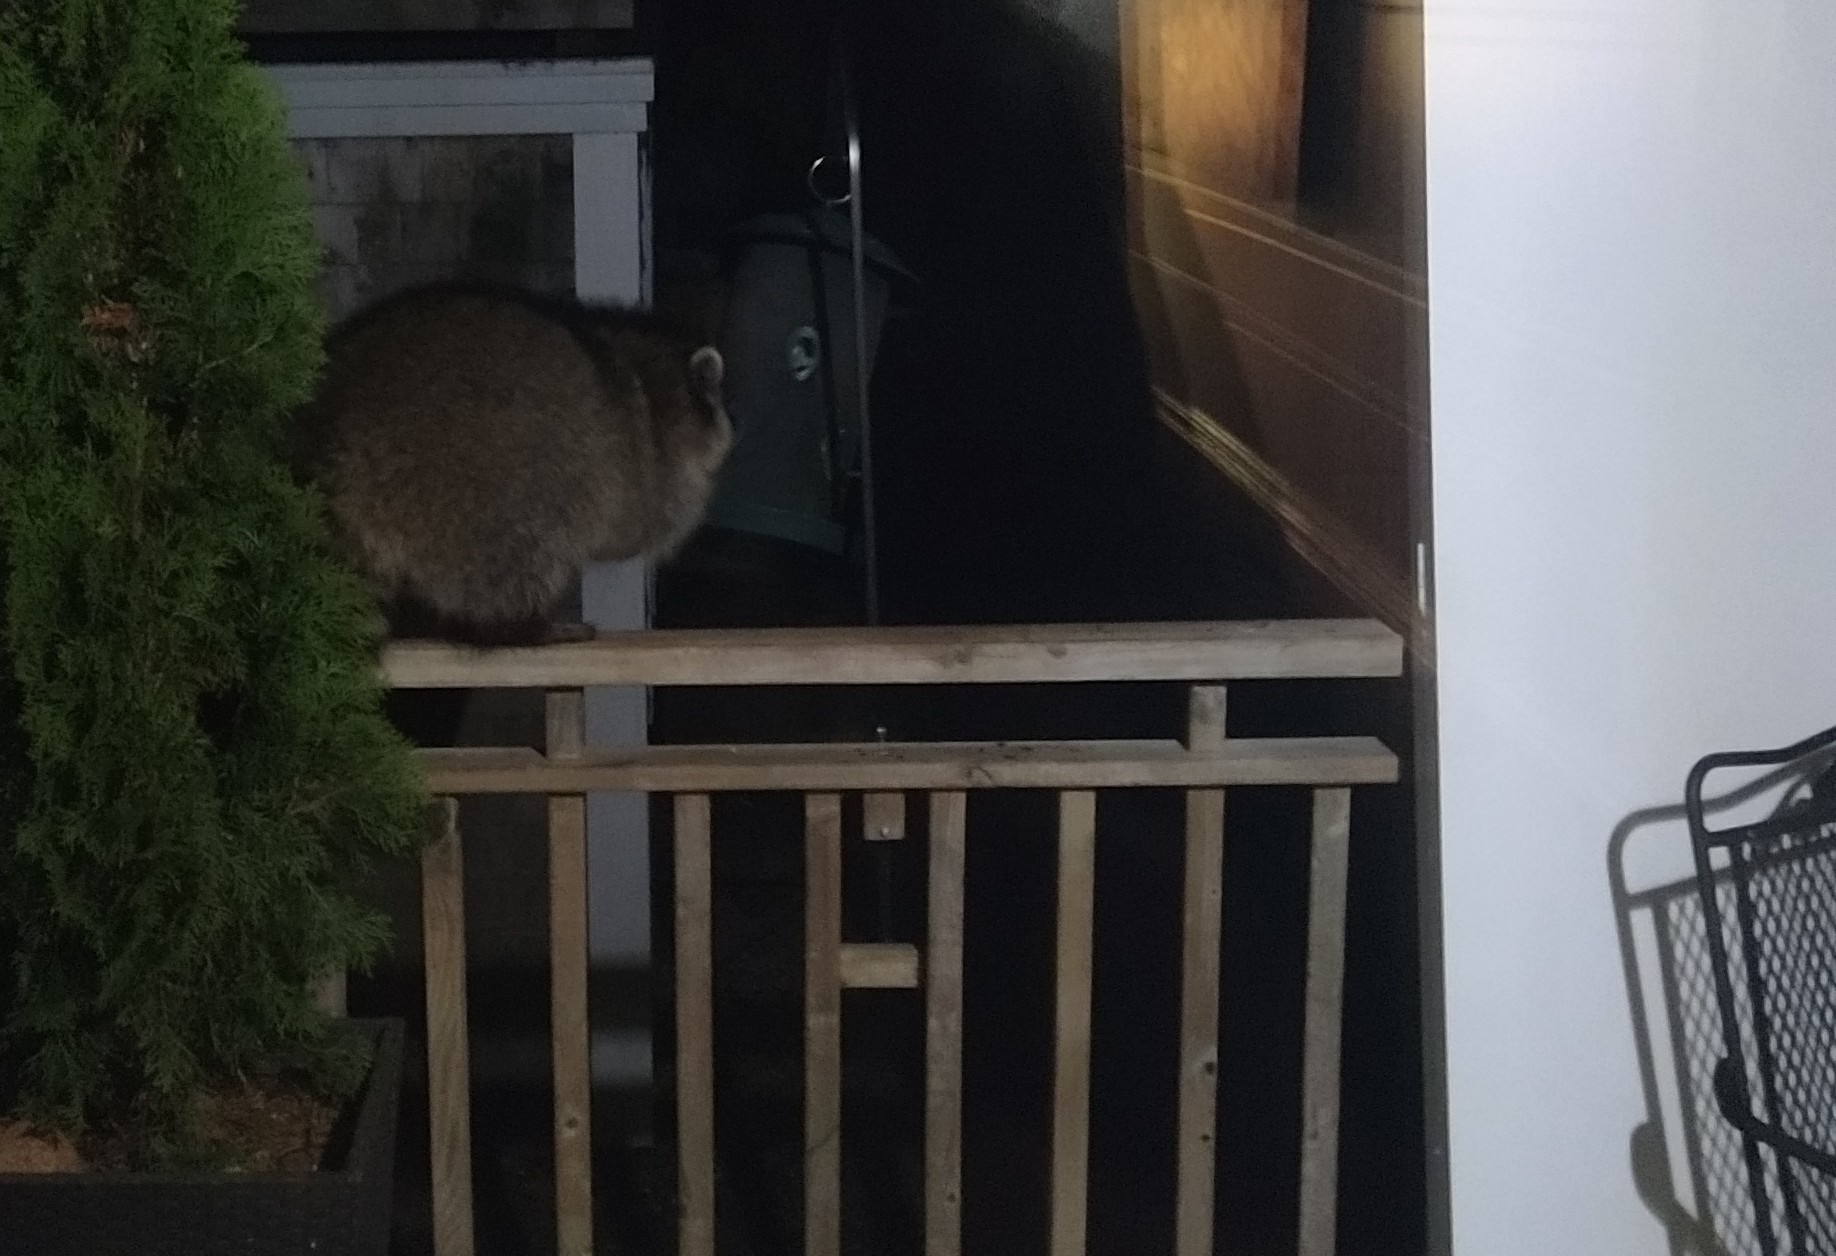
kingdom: Animalia
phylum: Chordata
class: Mammalia
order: Carnivora
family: Procyonidae
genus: Procyon
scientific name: Procyon lotor
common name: Raccoon
